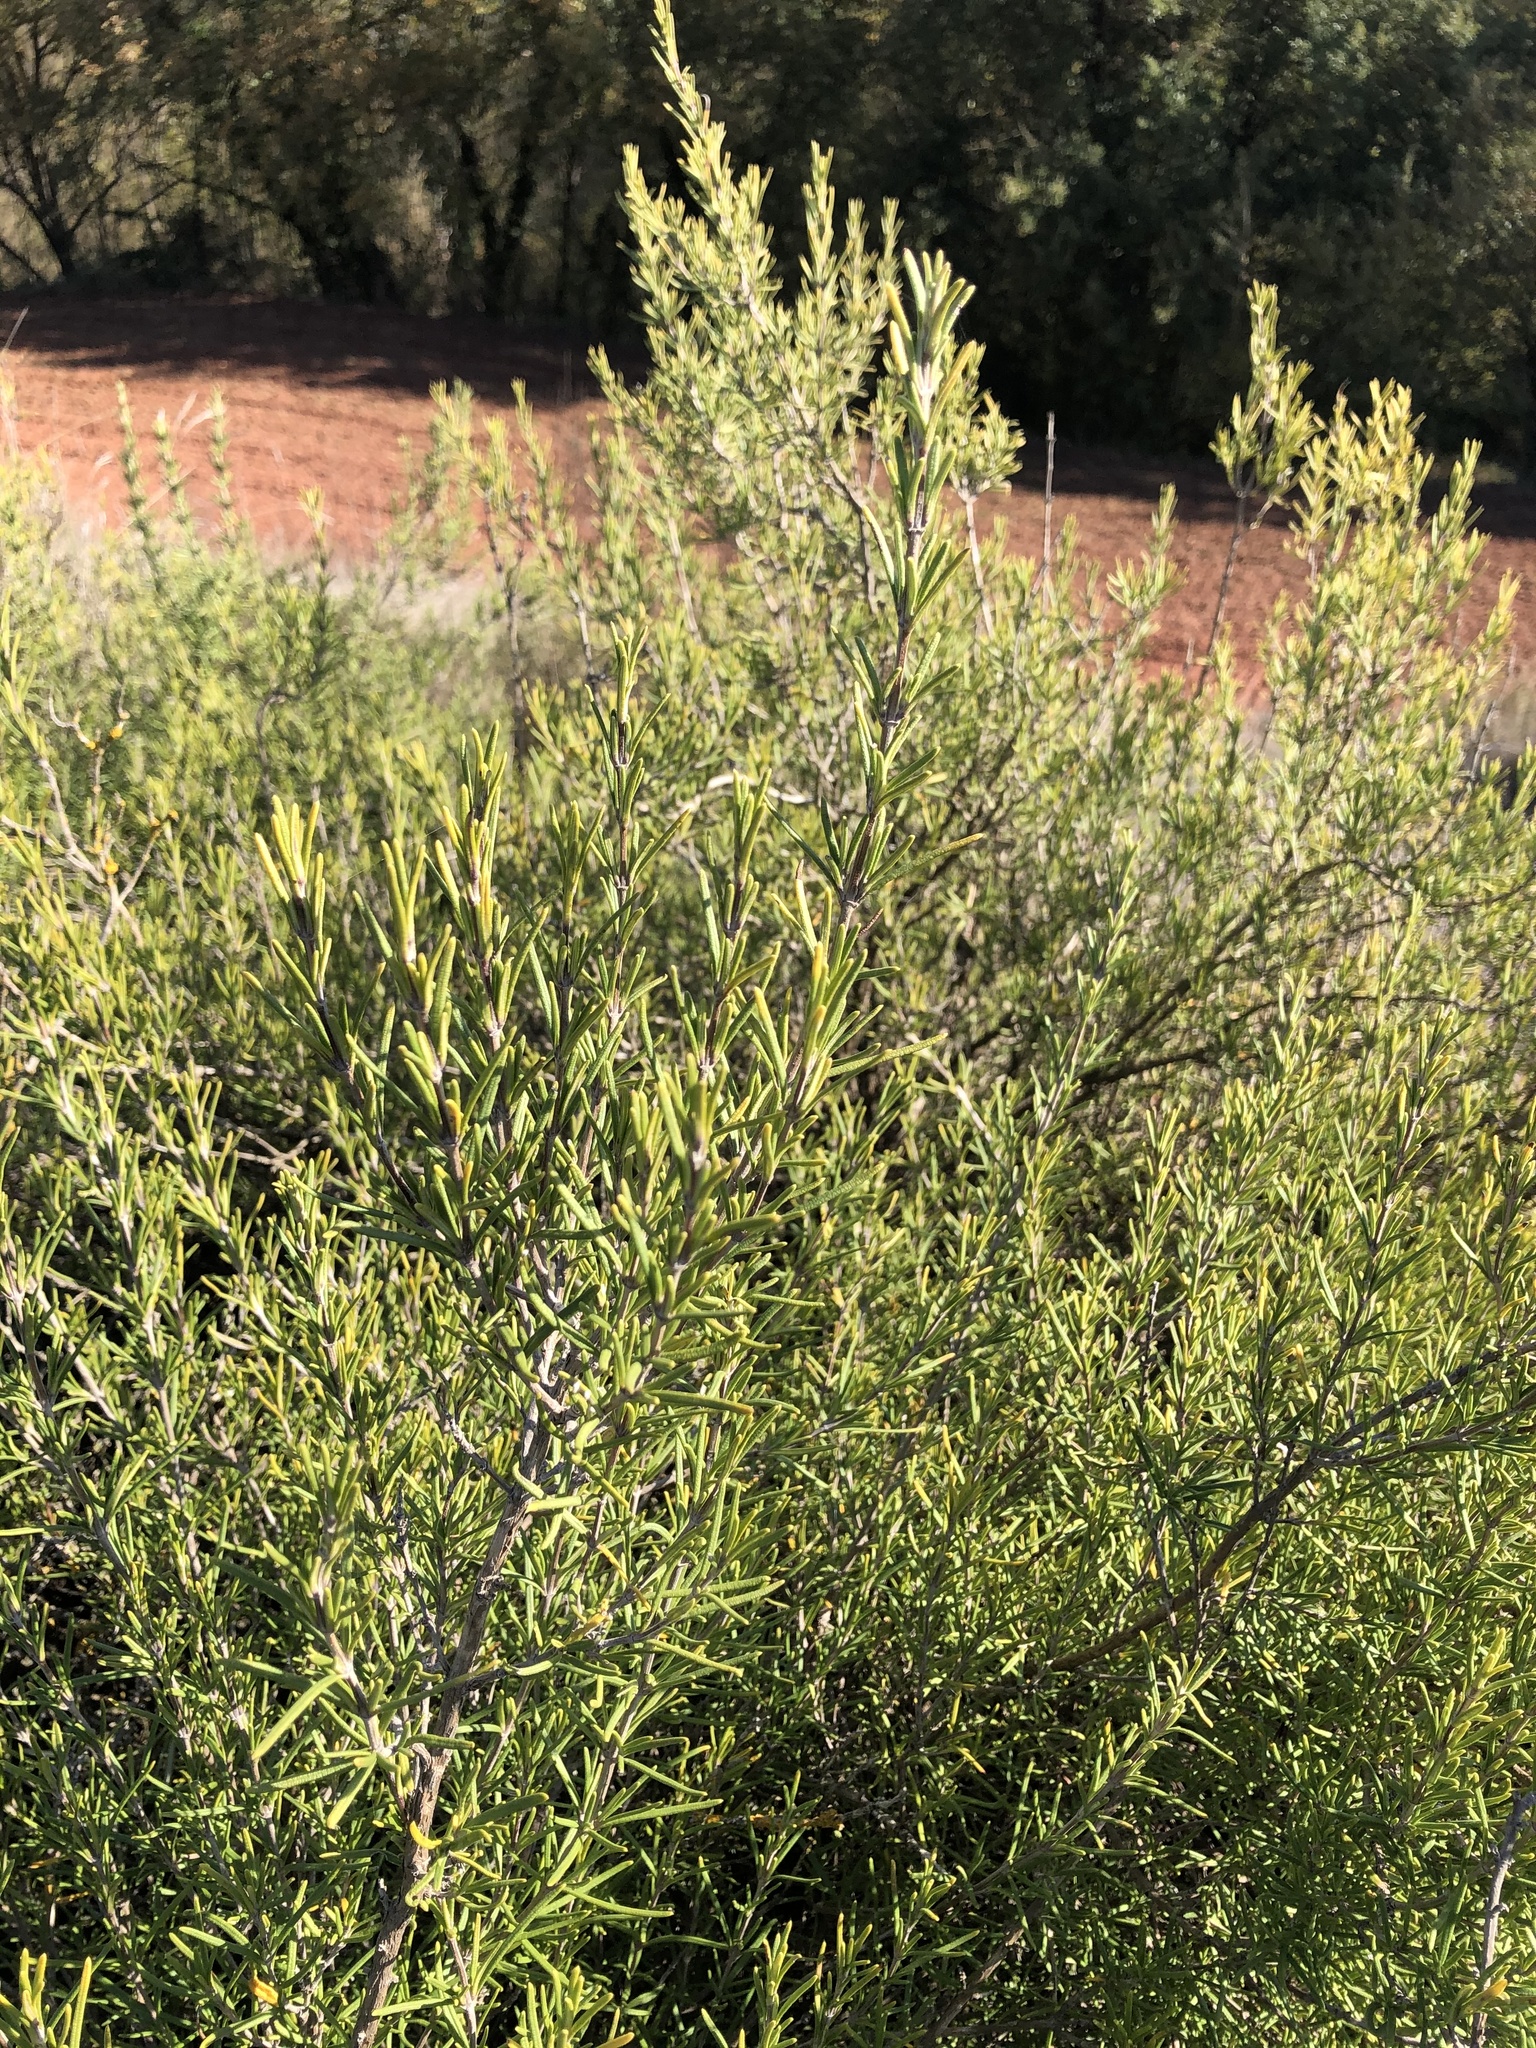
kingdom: Plantae
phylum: Tracheophyta
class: Magnoliopsida
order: Lamiales
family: Lamiaceae
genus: Salvia
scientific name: Salvia rosmarinus
